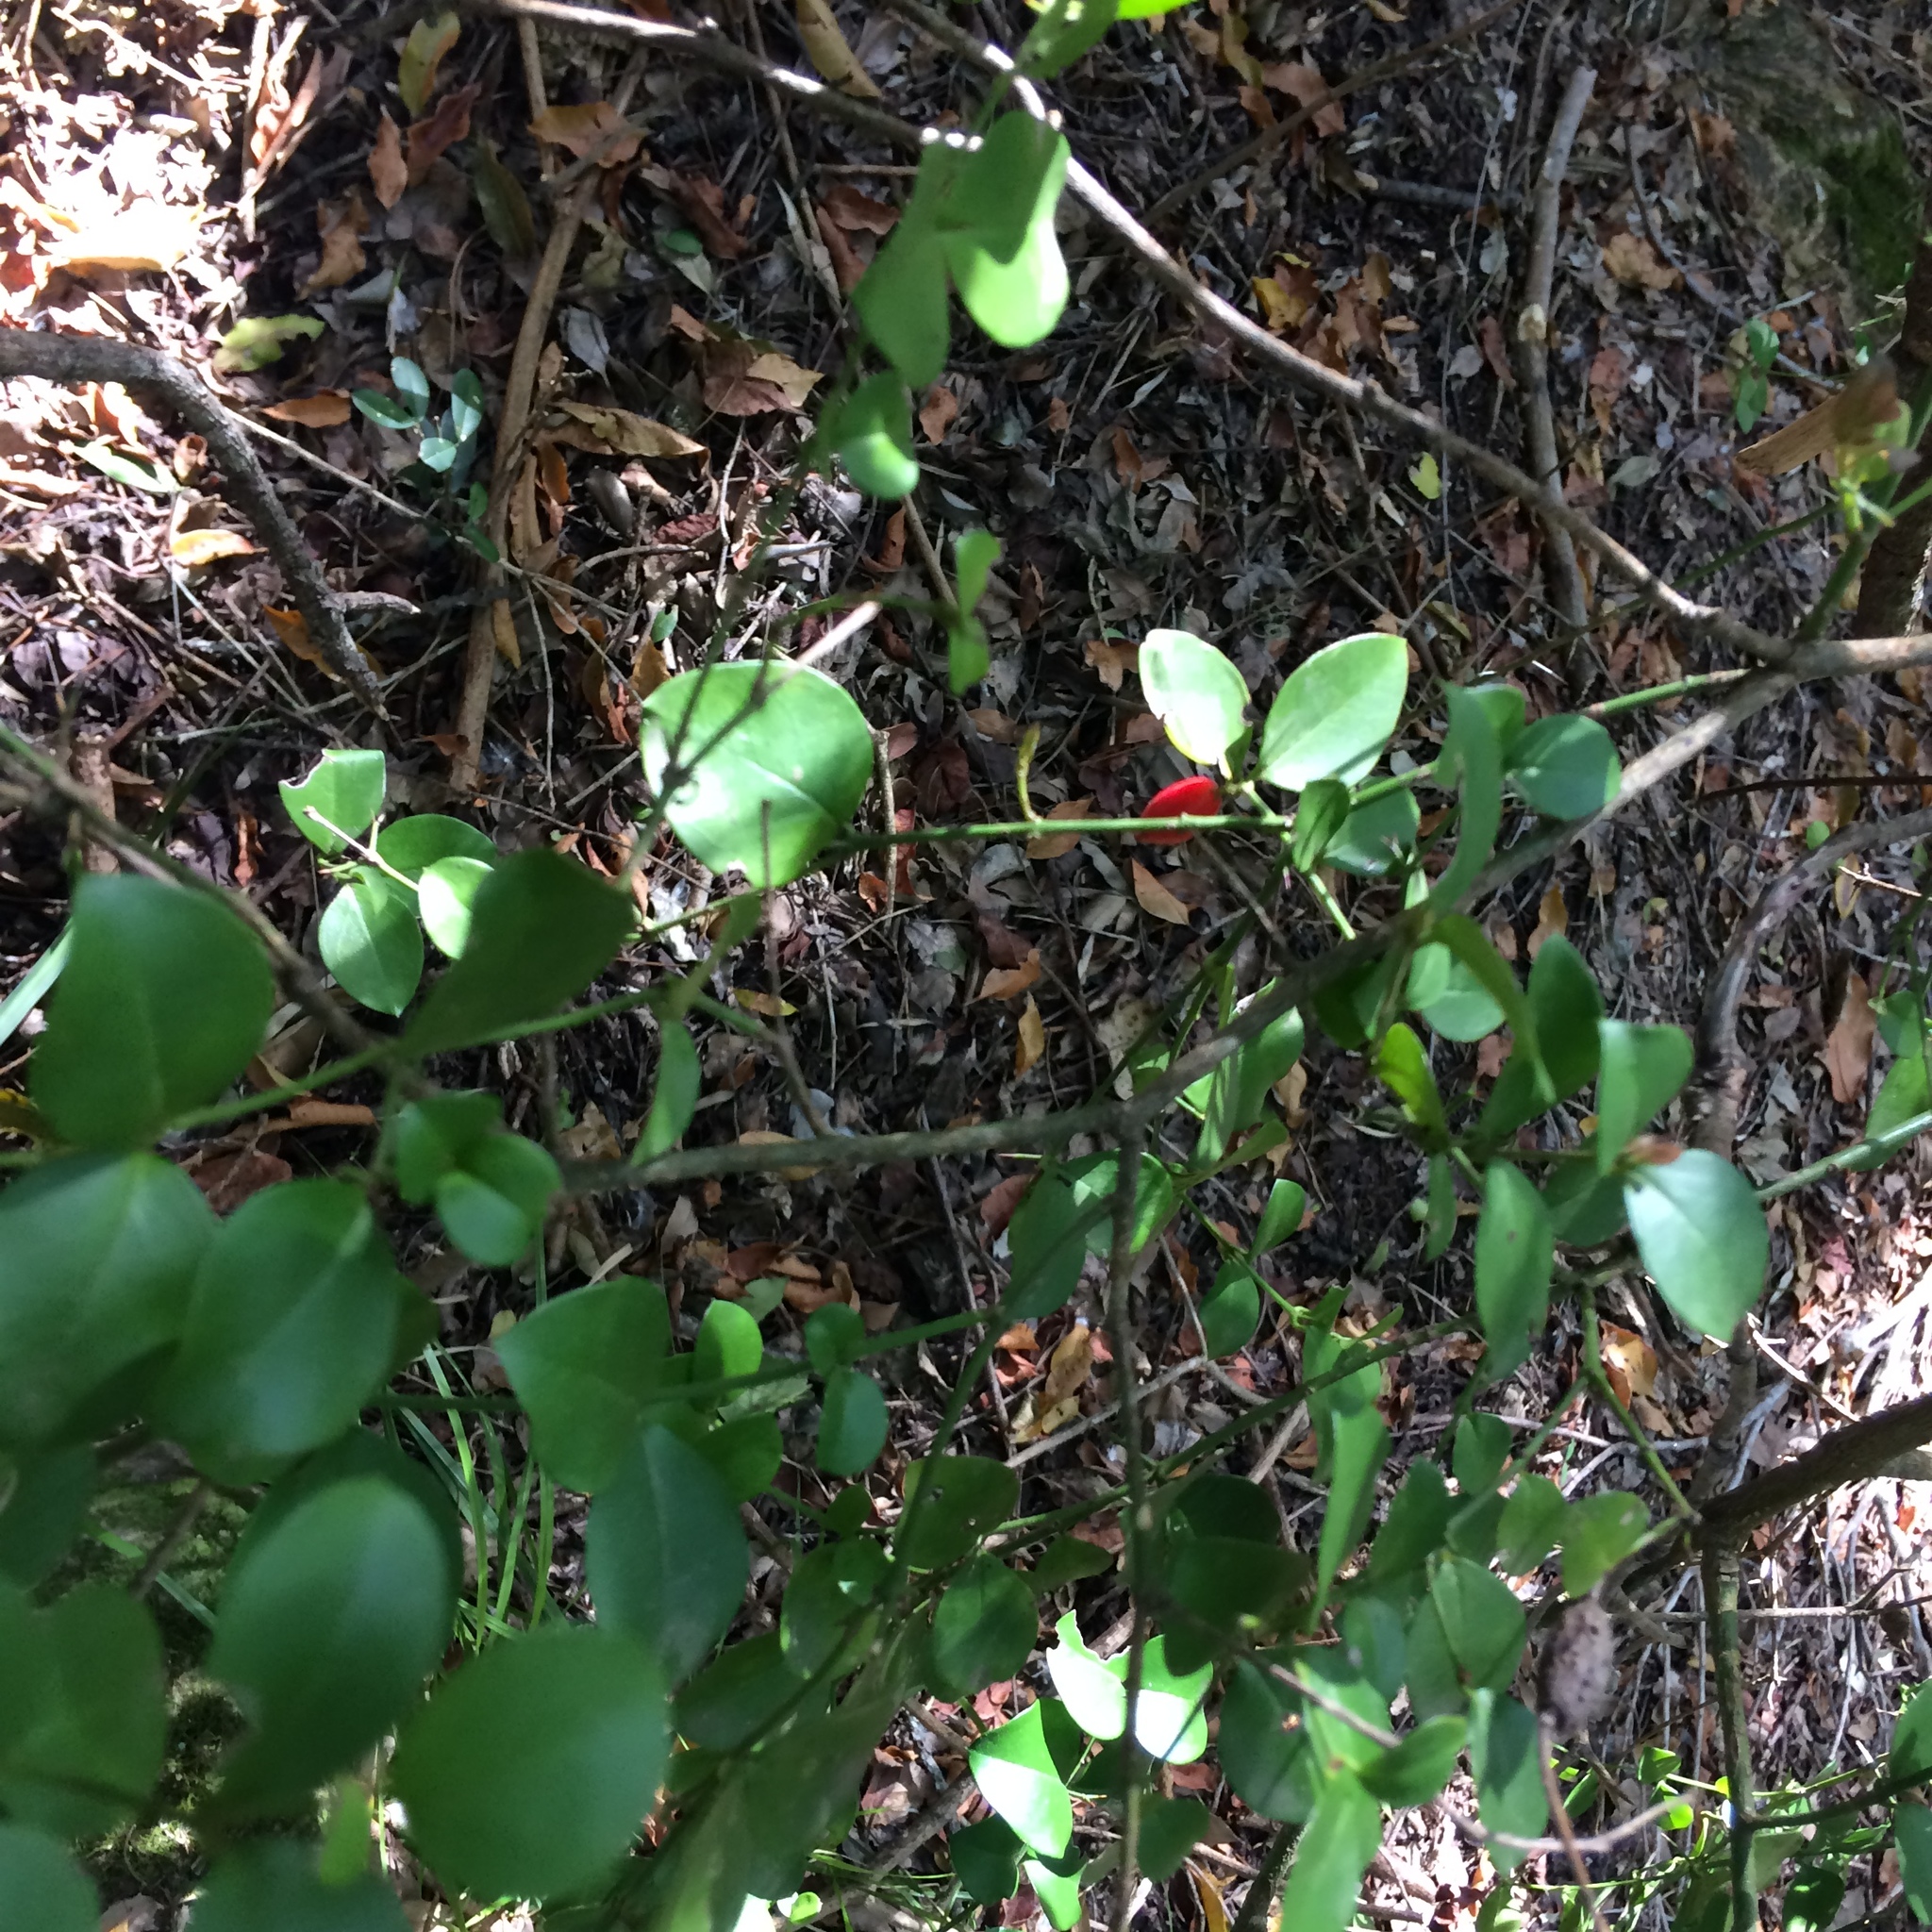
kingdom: Plantae
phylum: Tracheophyta
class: Magnoliopsida
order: Gentianales
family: Apocynaceae
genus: Carissa
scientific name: Carissa bispinosa
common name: Forest num-num
